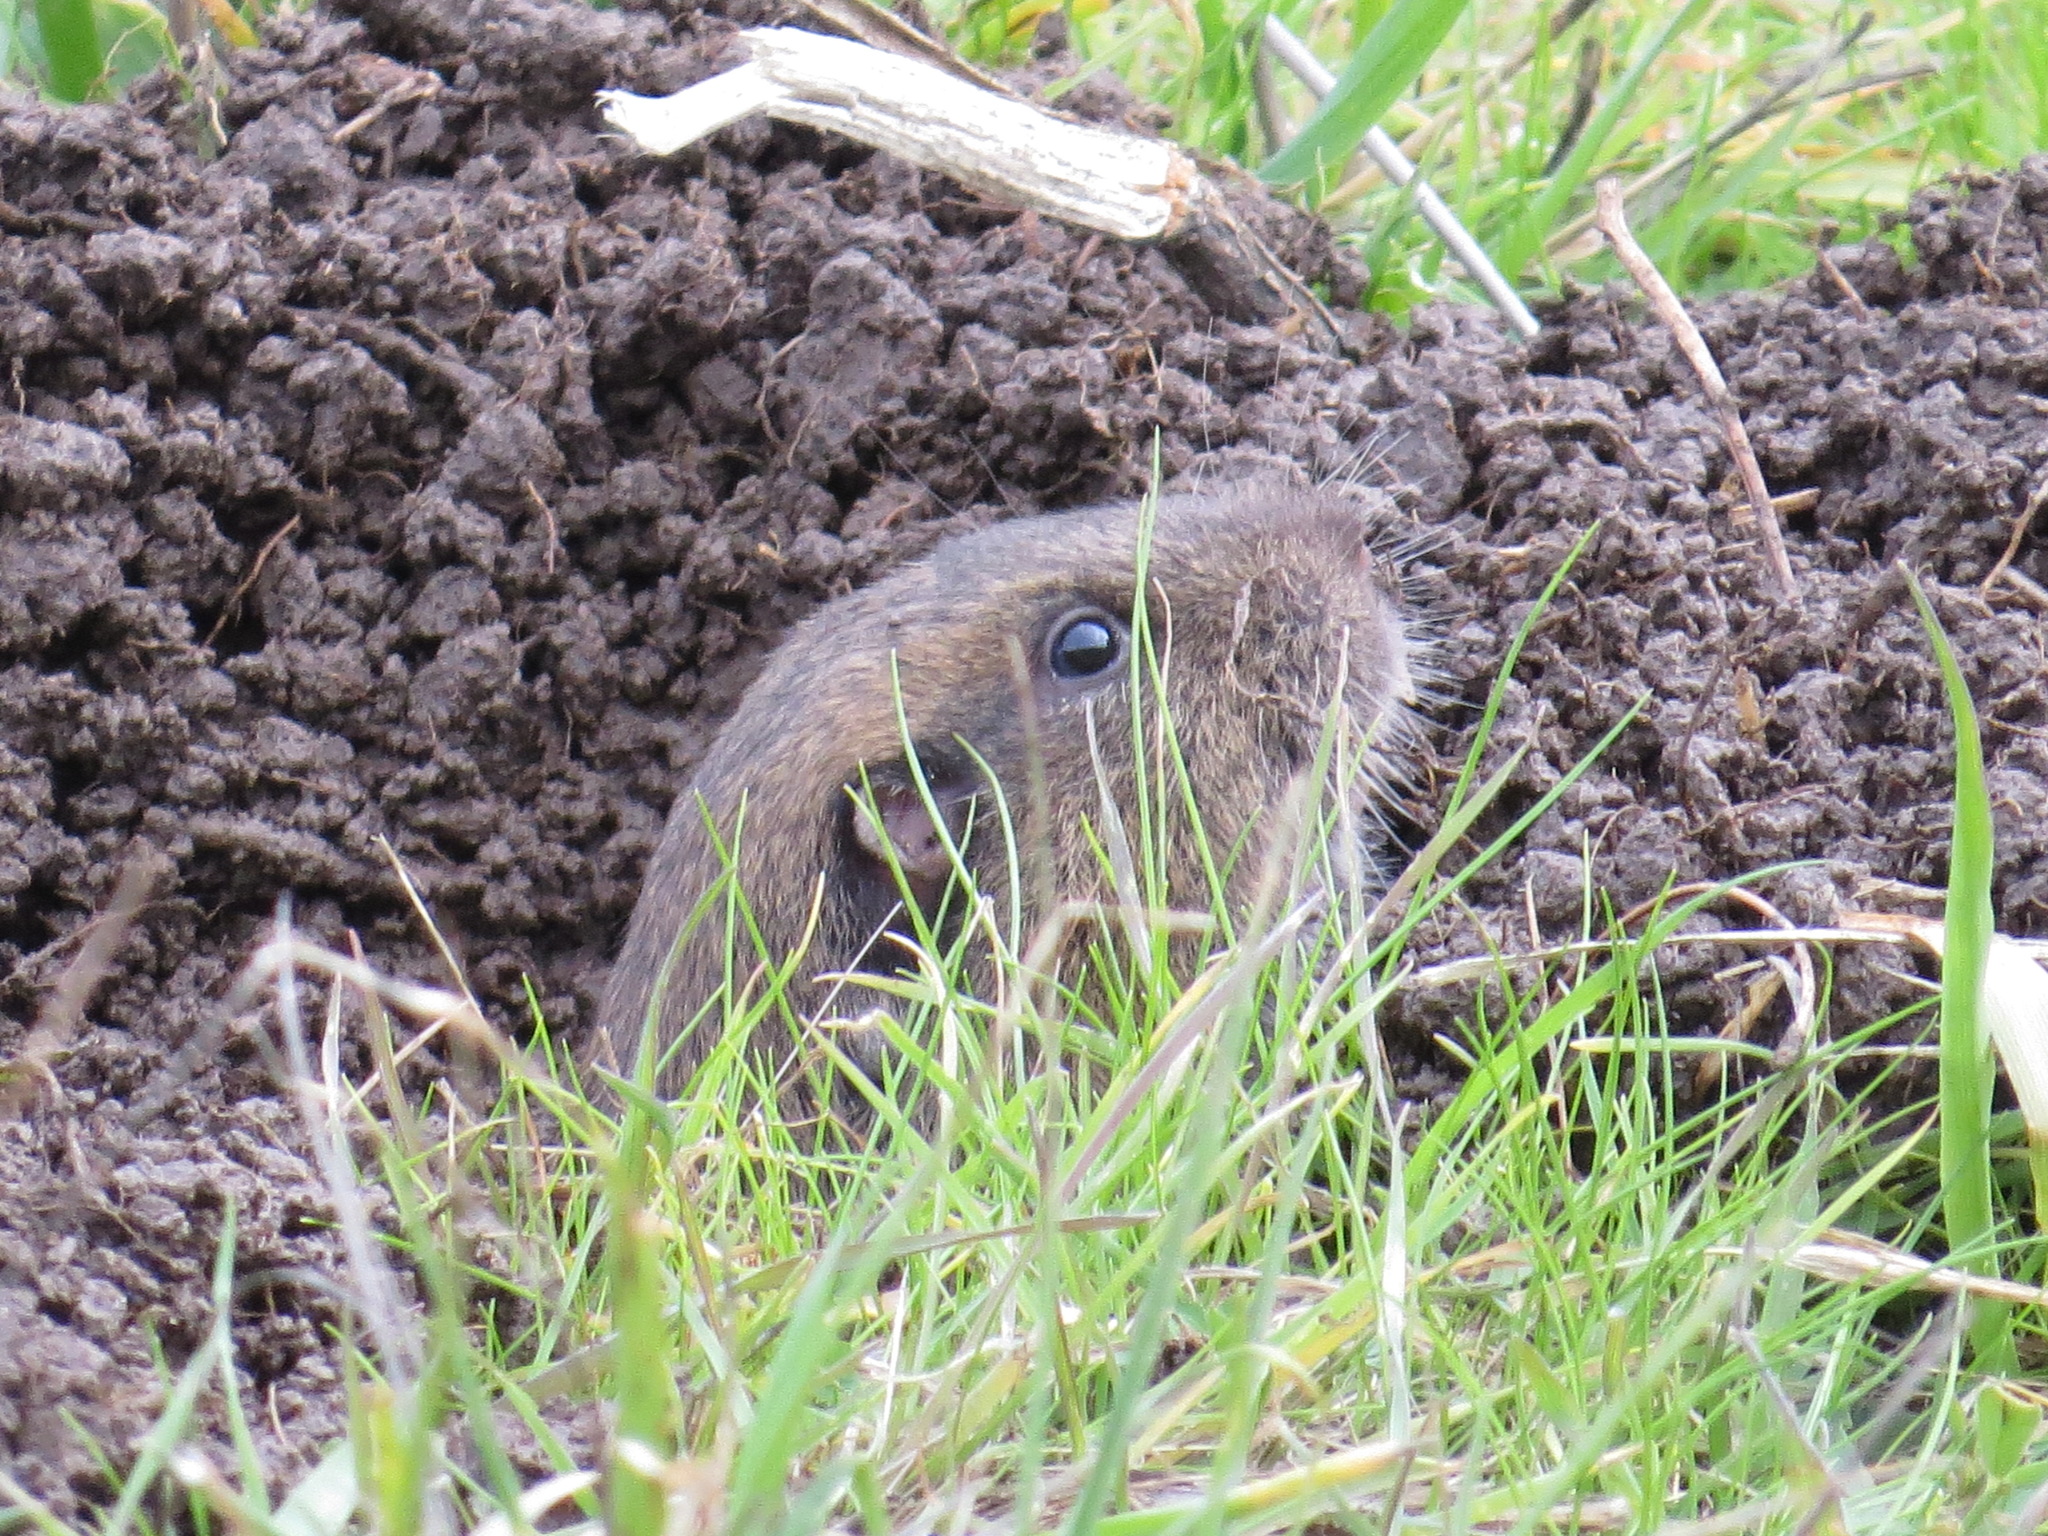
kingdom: Animalia
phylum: Chordata
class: Mammalia
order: Rodentia
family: Geomyidae
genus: Thomomys
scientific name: Thomomys bottae
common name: Botta's pocket gopher
